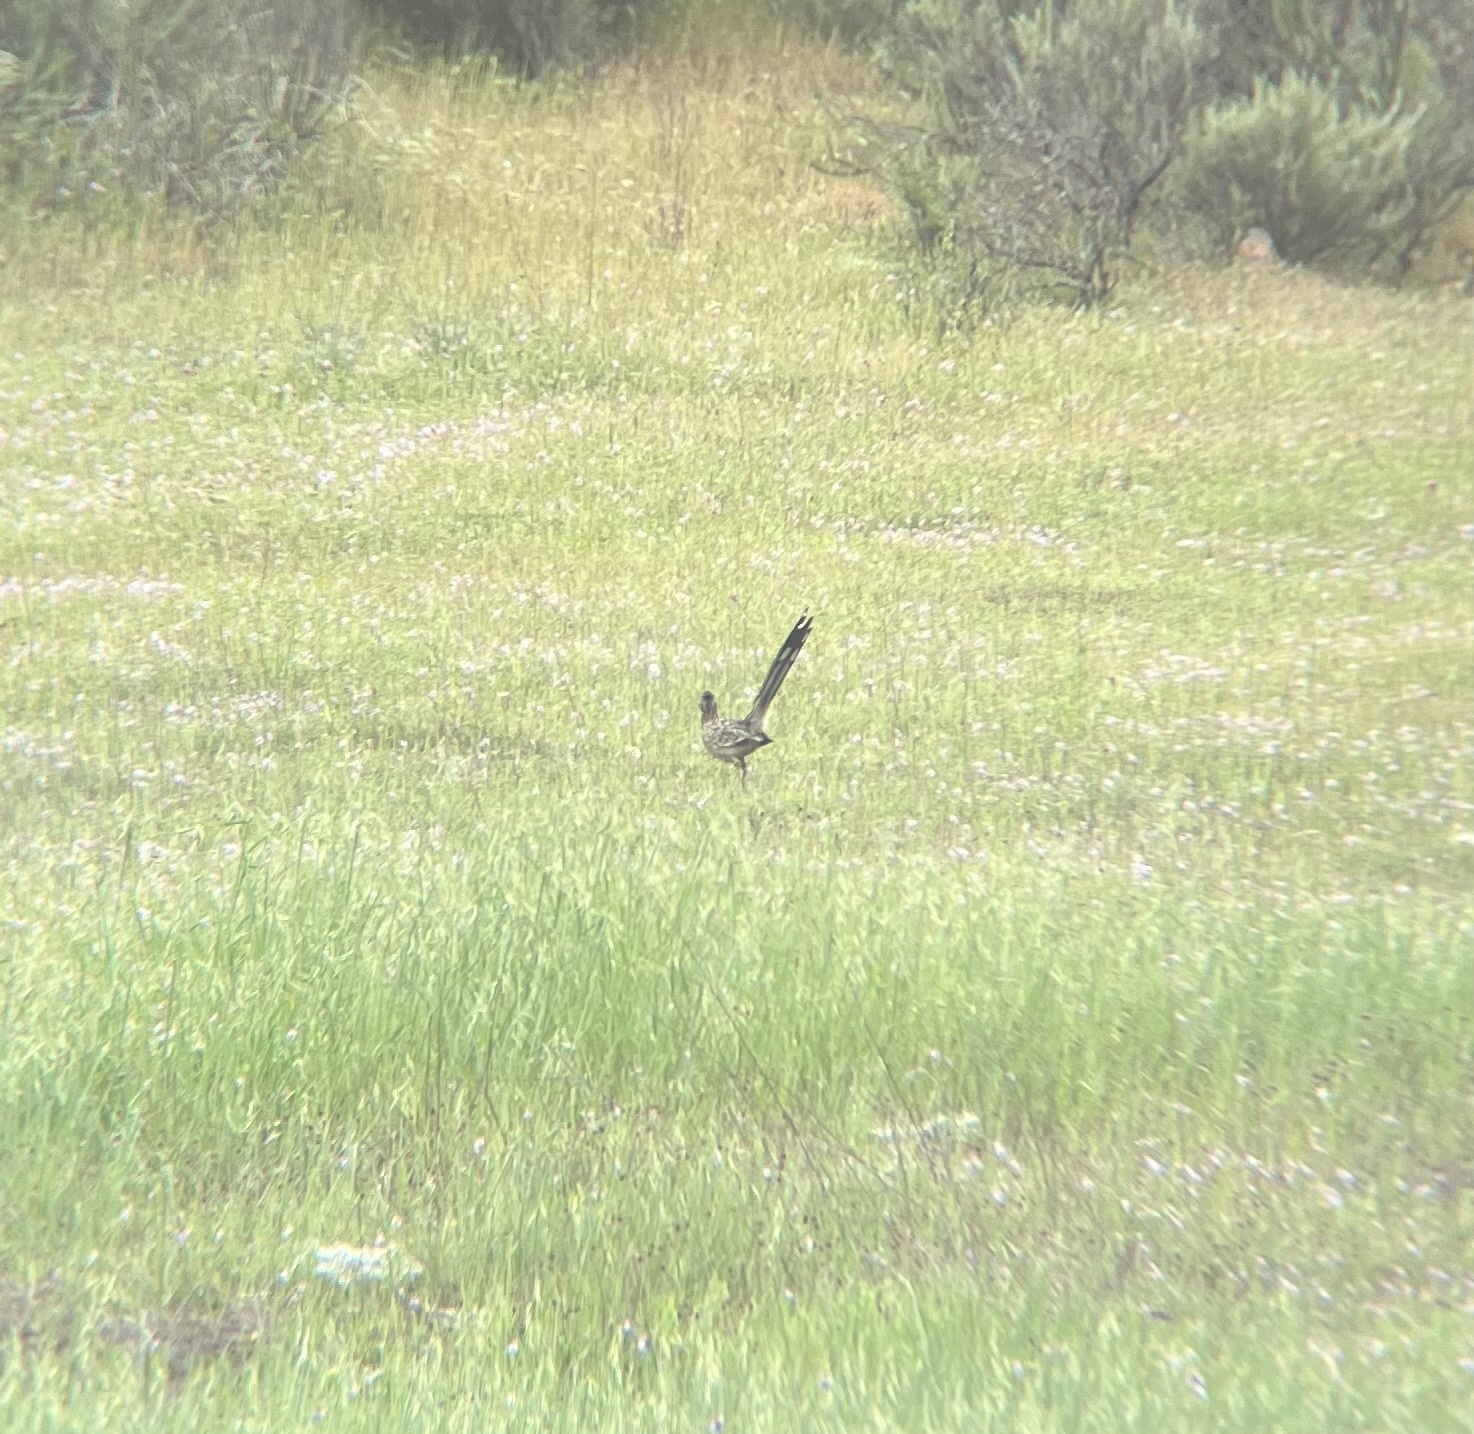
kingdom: Animalia
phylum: Chordata
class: Aves
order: Cuculiformes
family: Cuculidae
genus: Geococcyx
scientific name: Geococcyx californianus
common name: Greater roadrunner
